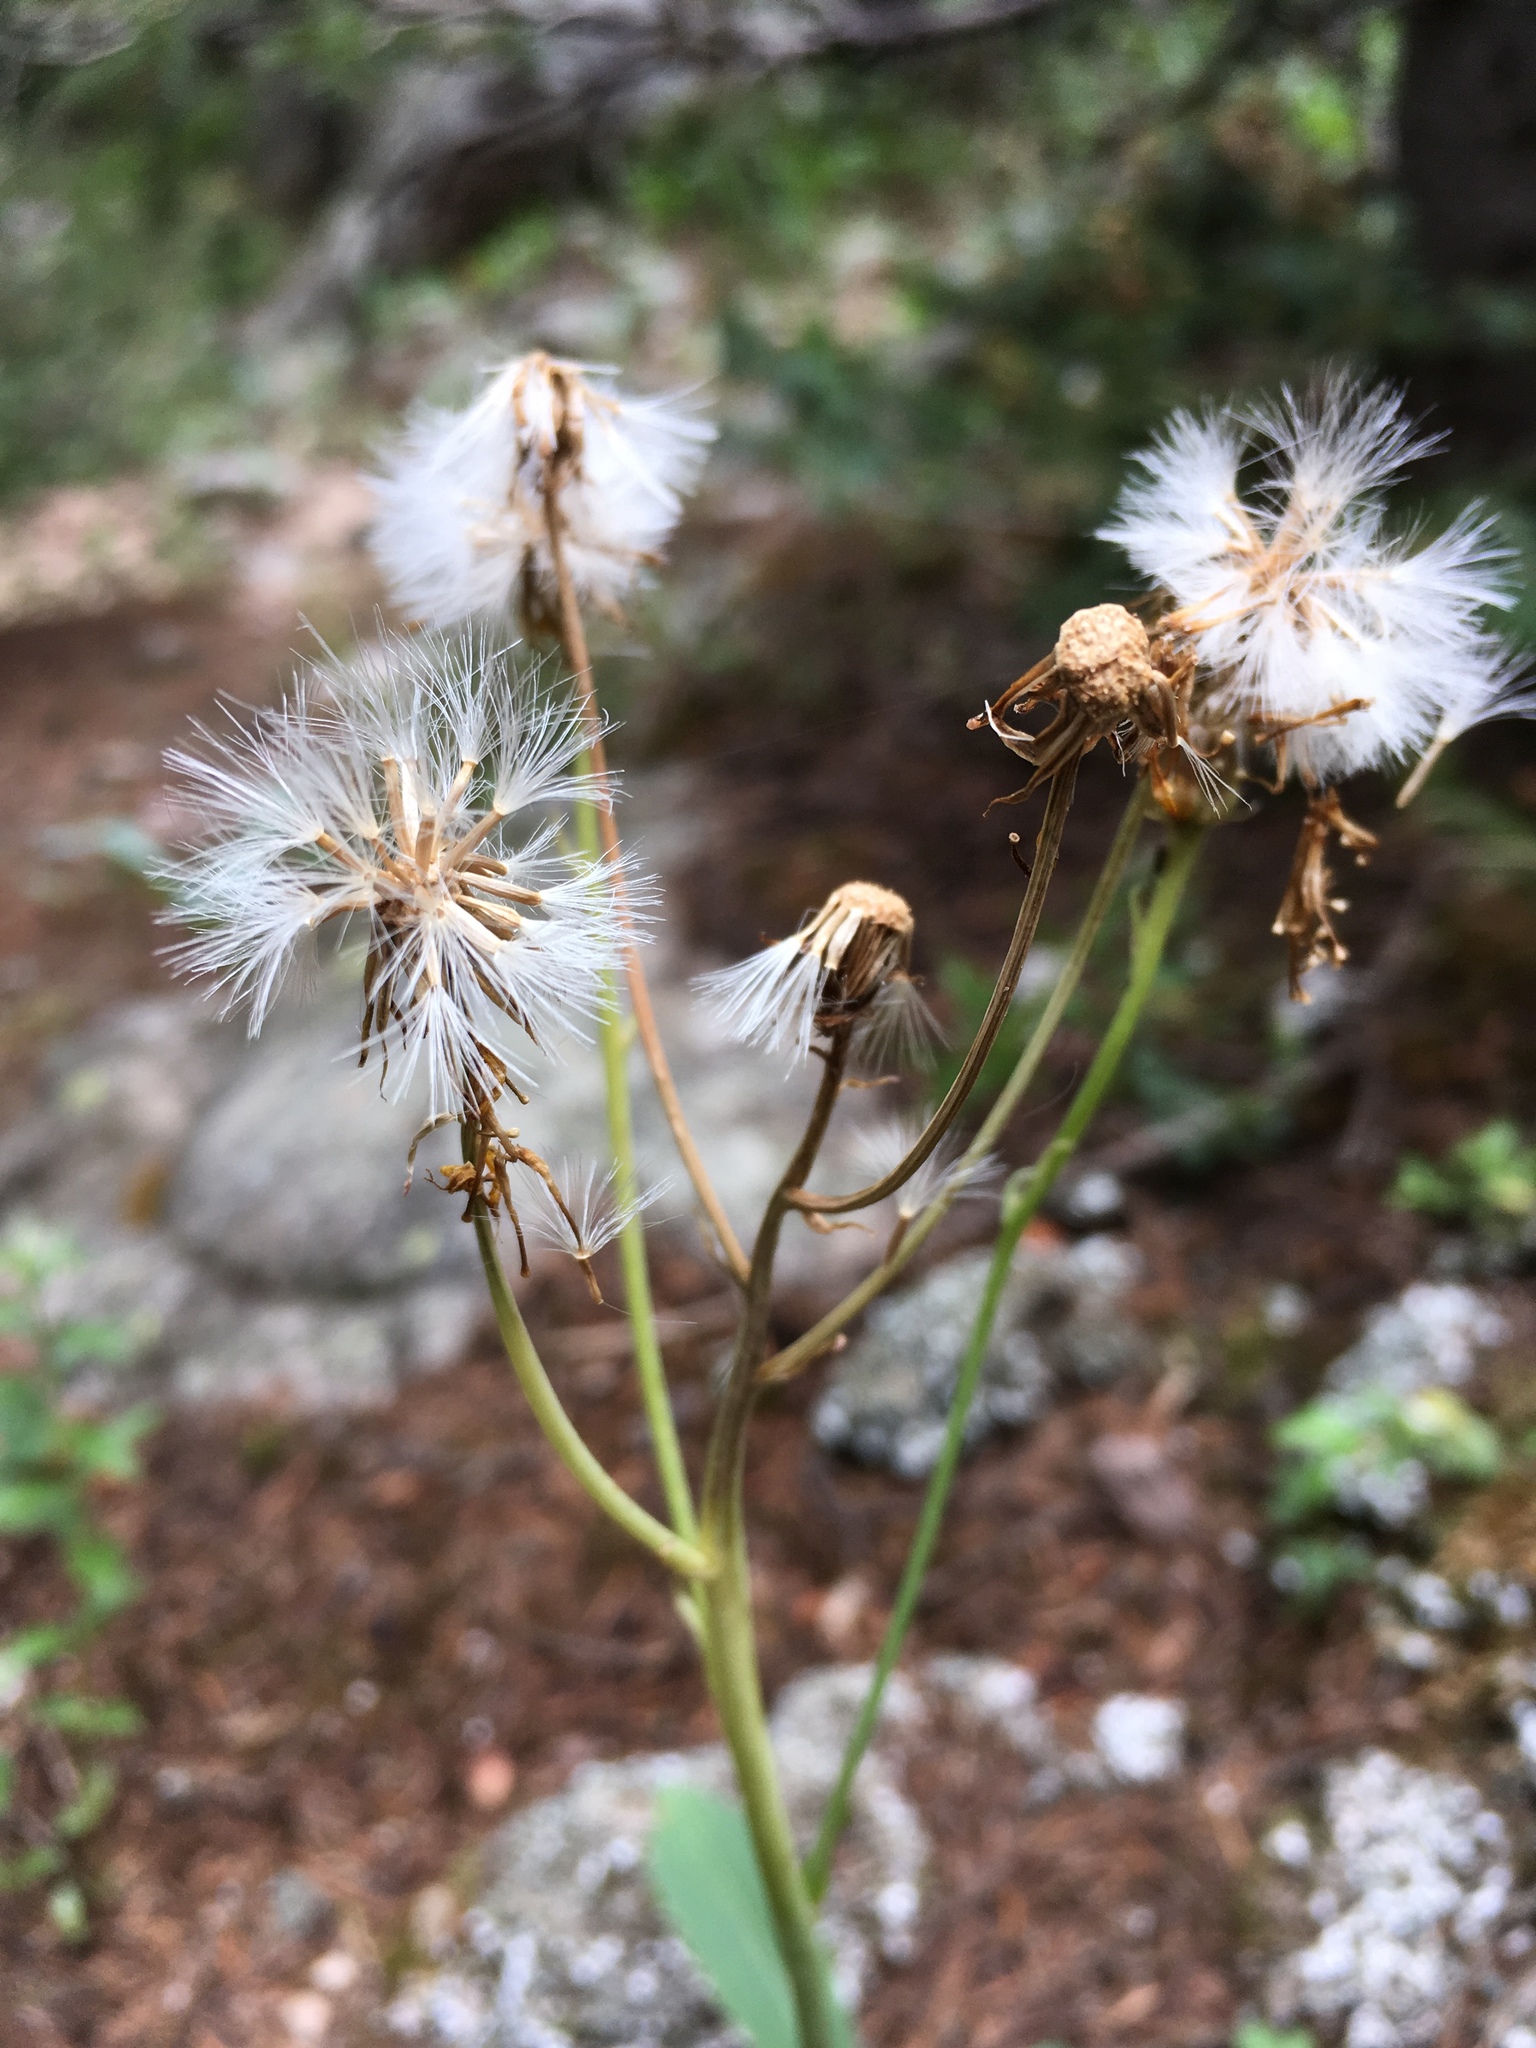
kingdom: Plantae
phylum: Tracheophyta
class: Magnoliopsida
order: Asterales
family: Asteraceae
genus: Senecio
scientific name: Senecio wootonii
